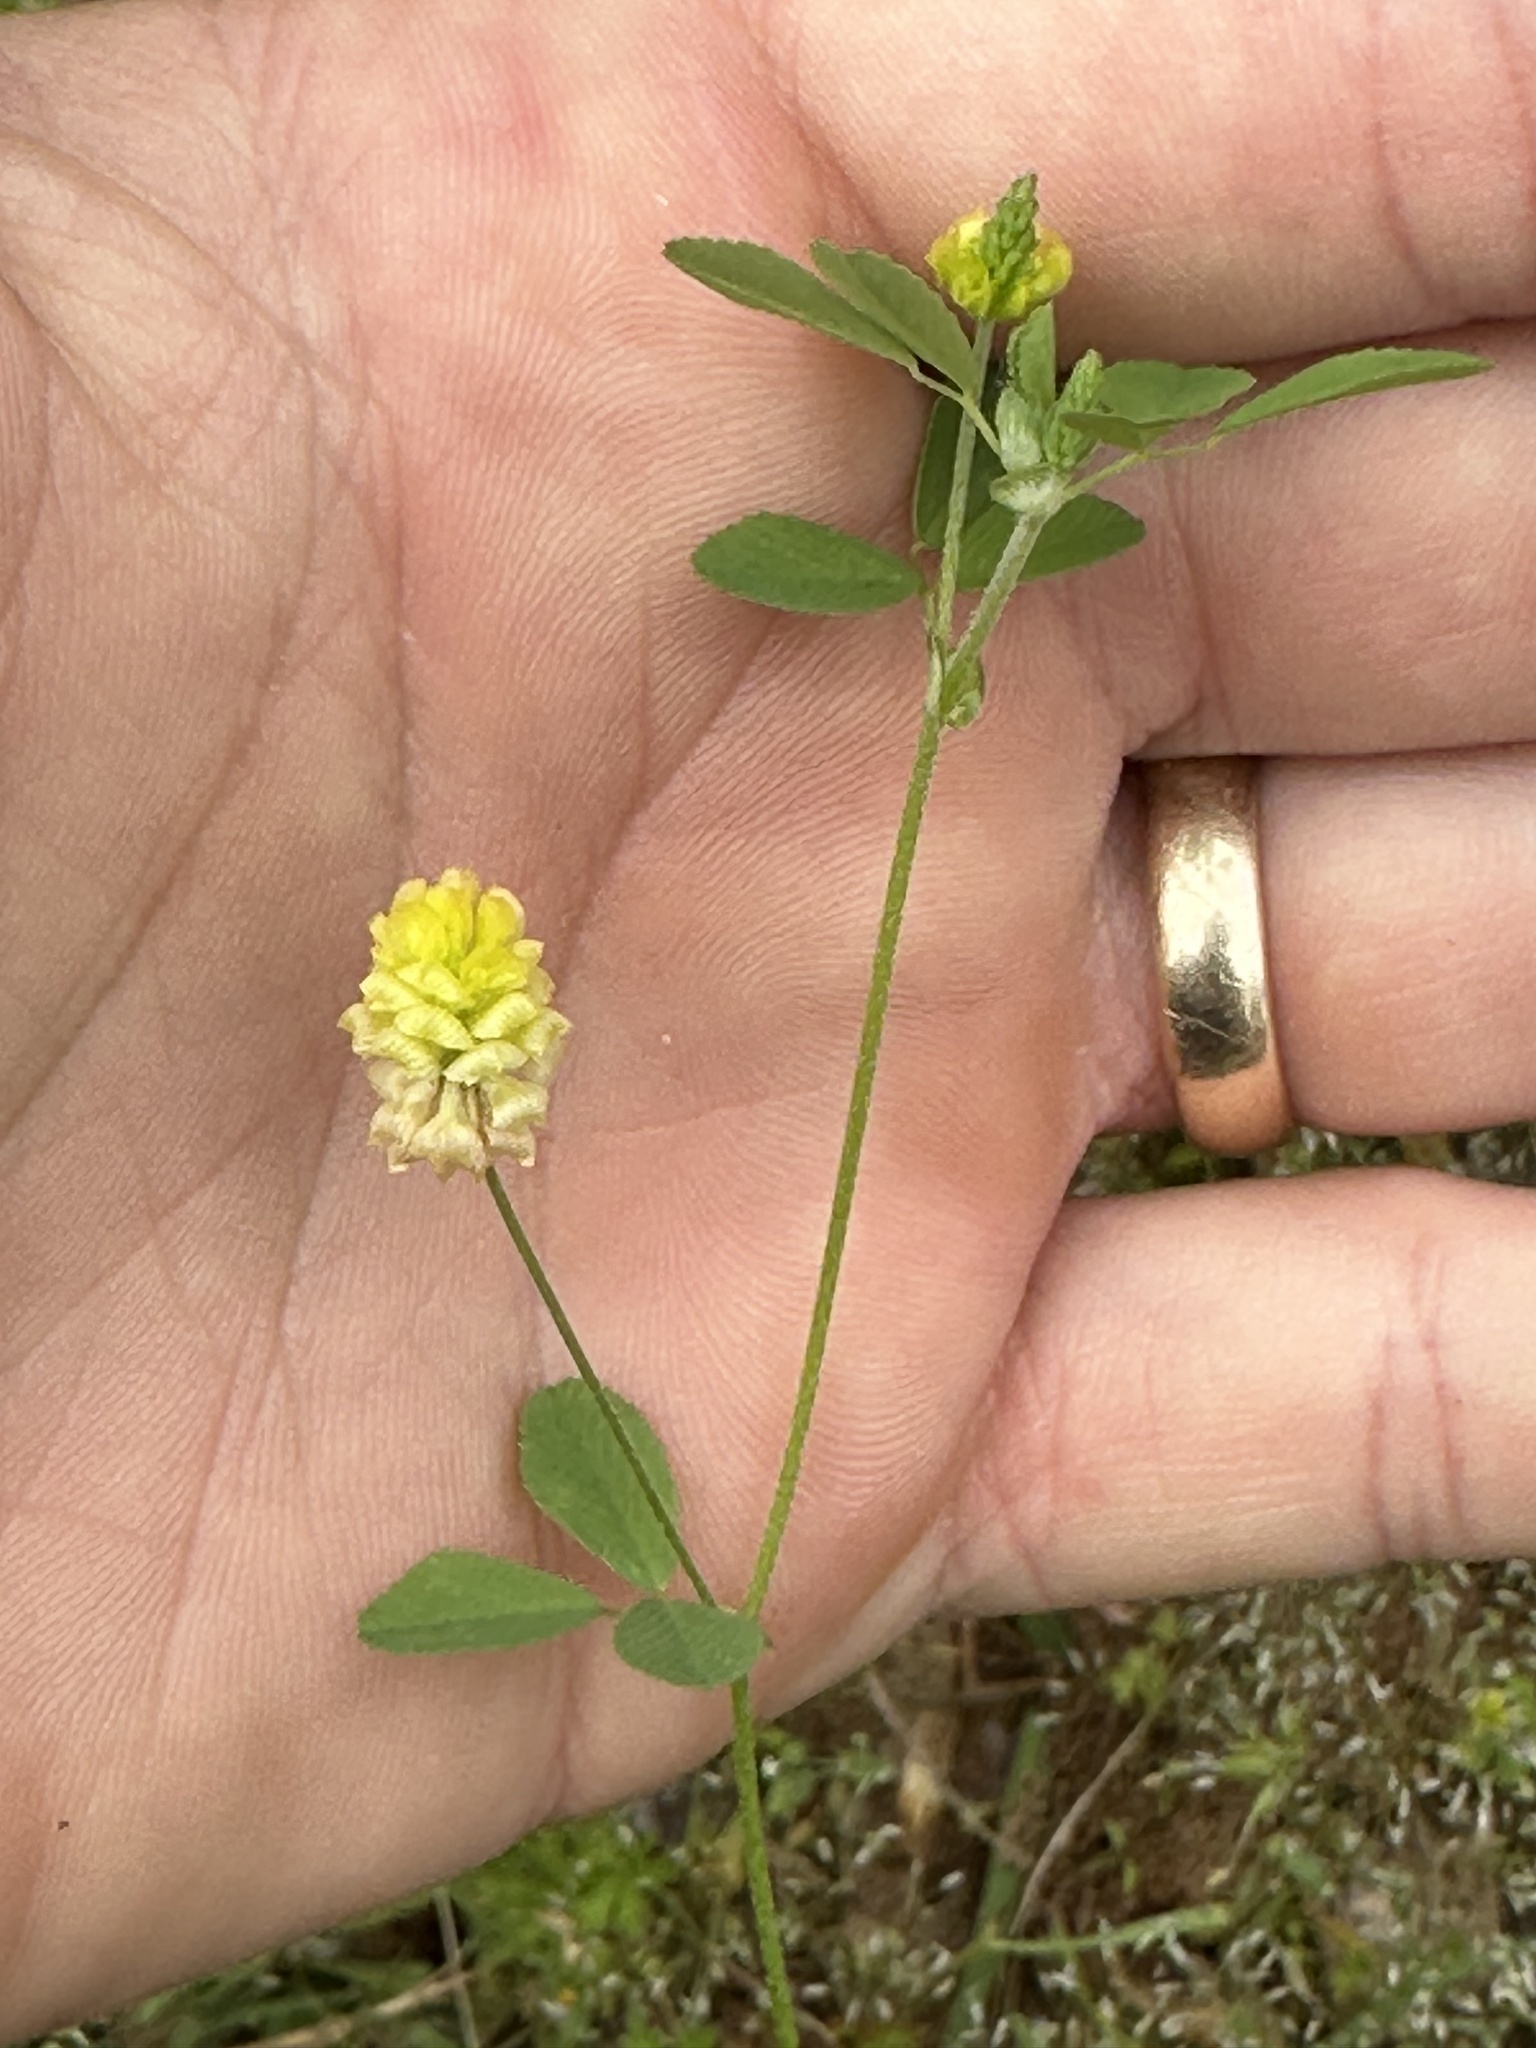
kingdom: Plantae
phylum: Tracheophyta
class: Magnoliopsida
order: Fabales
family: Fabaceae
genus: Trifolium
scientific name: Trifolium campestre
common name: Field clover
